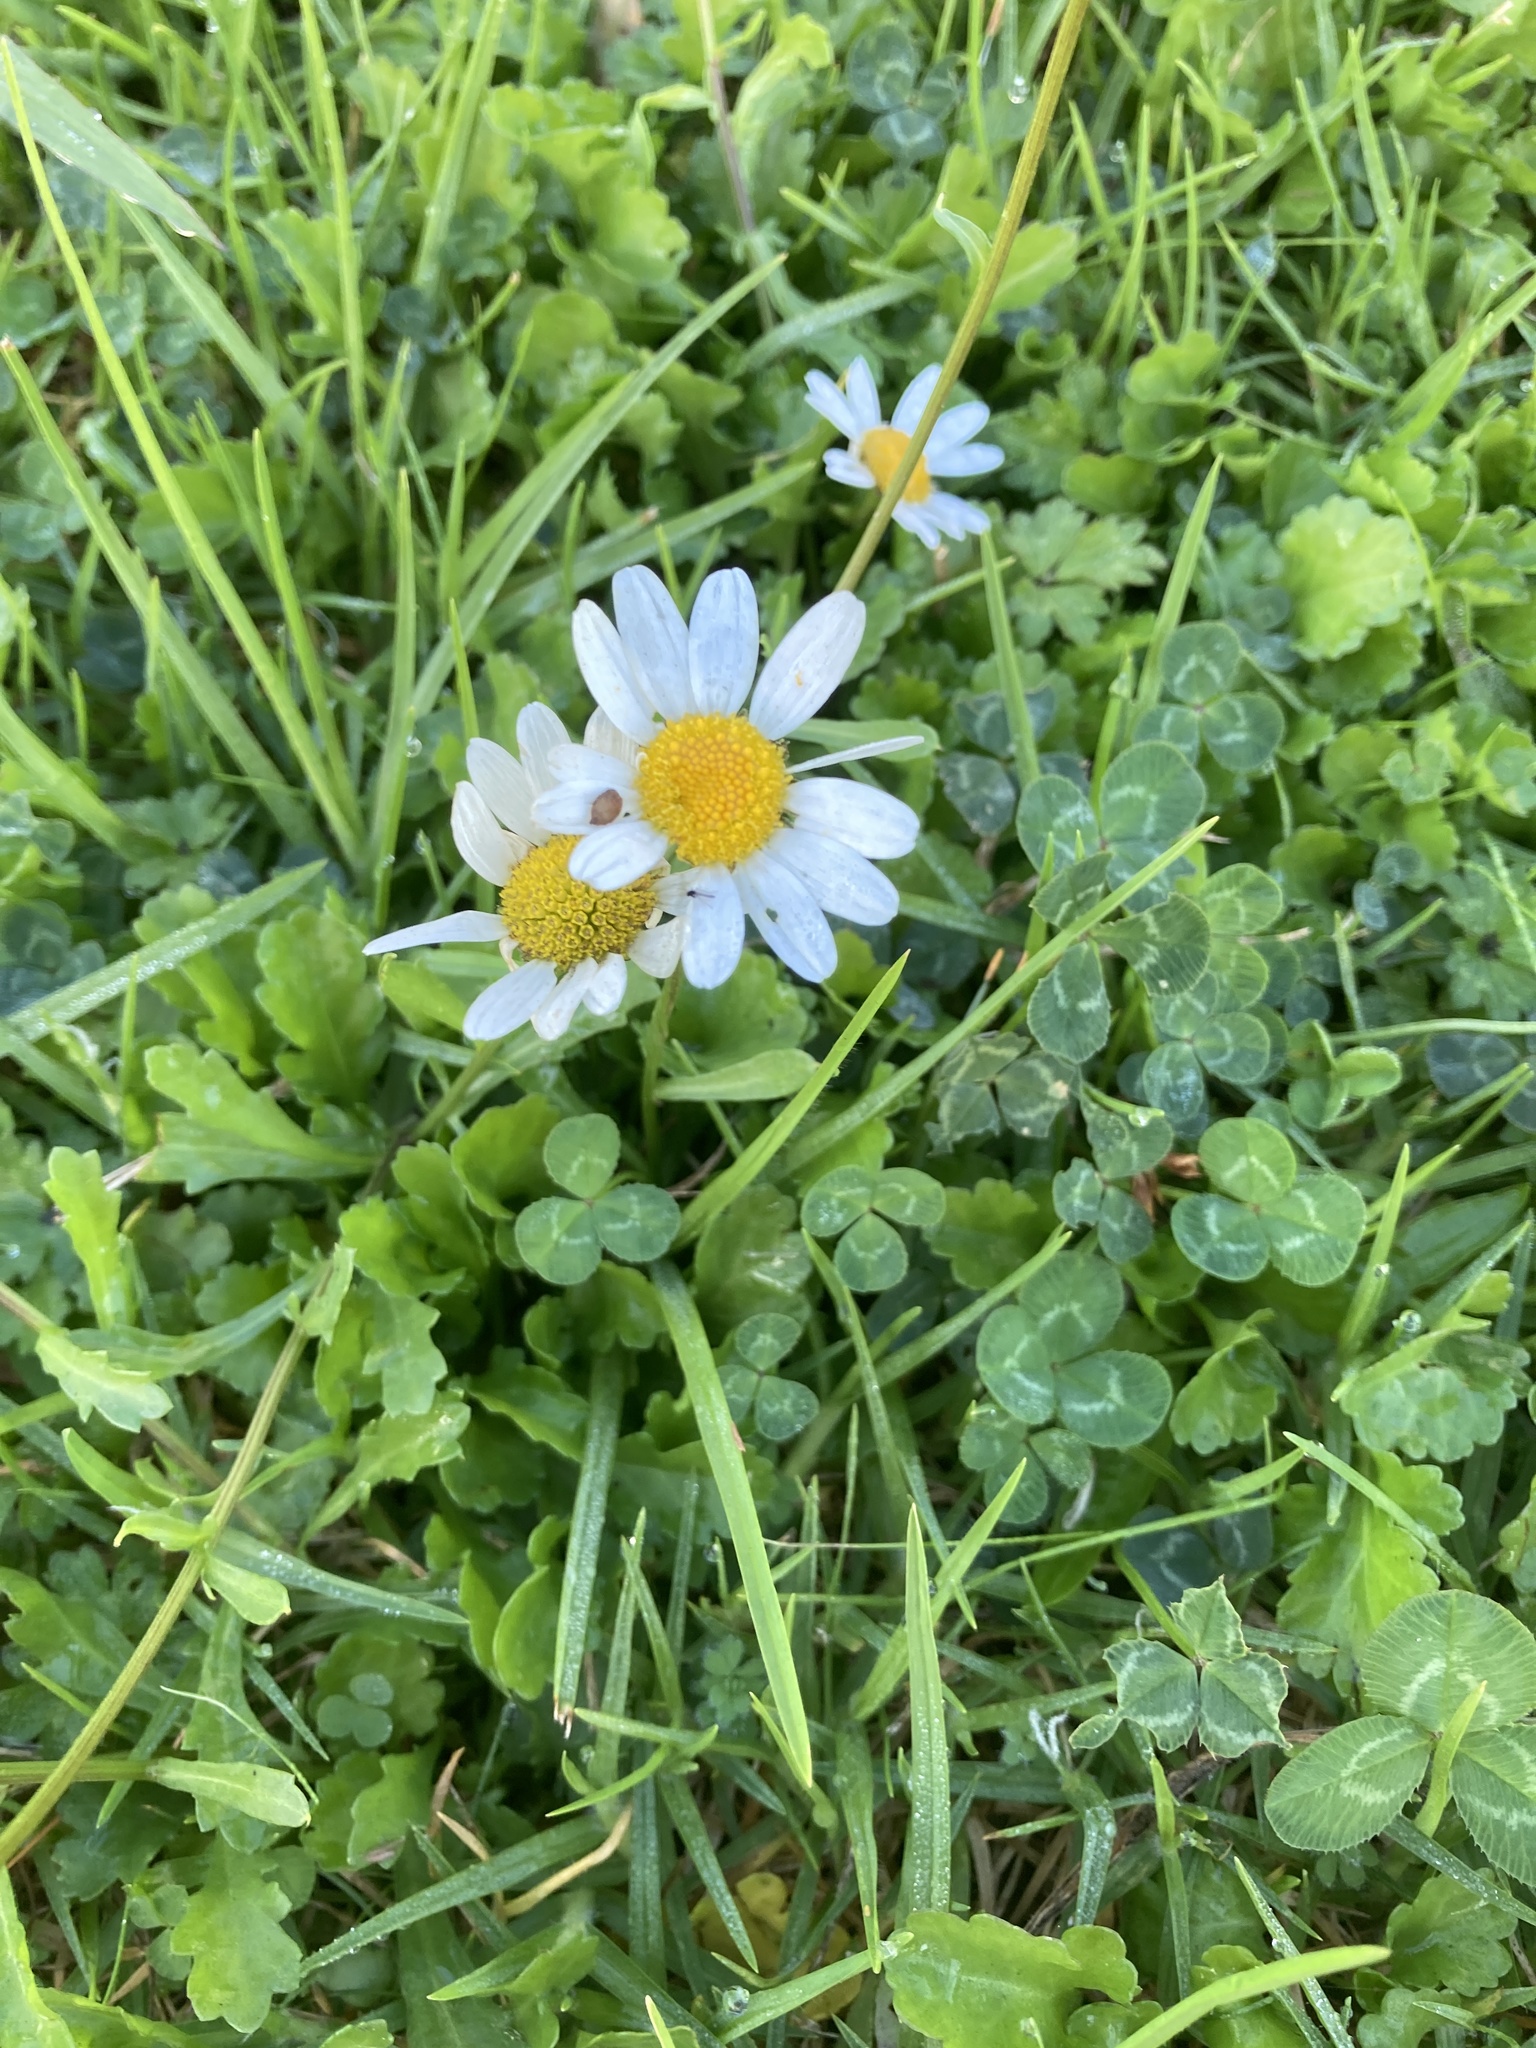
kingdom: Plantae
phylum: Tracheophyta
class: Magnoliopsida
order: Asterales
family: Asteraceae
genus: Leucanthemum
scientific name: Leucanthemum vulgare
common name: Oxeye daisy
